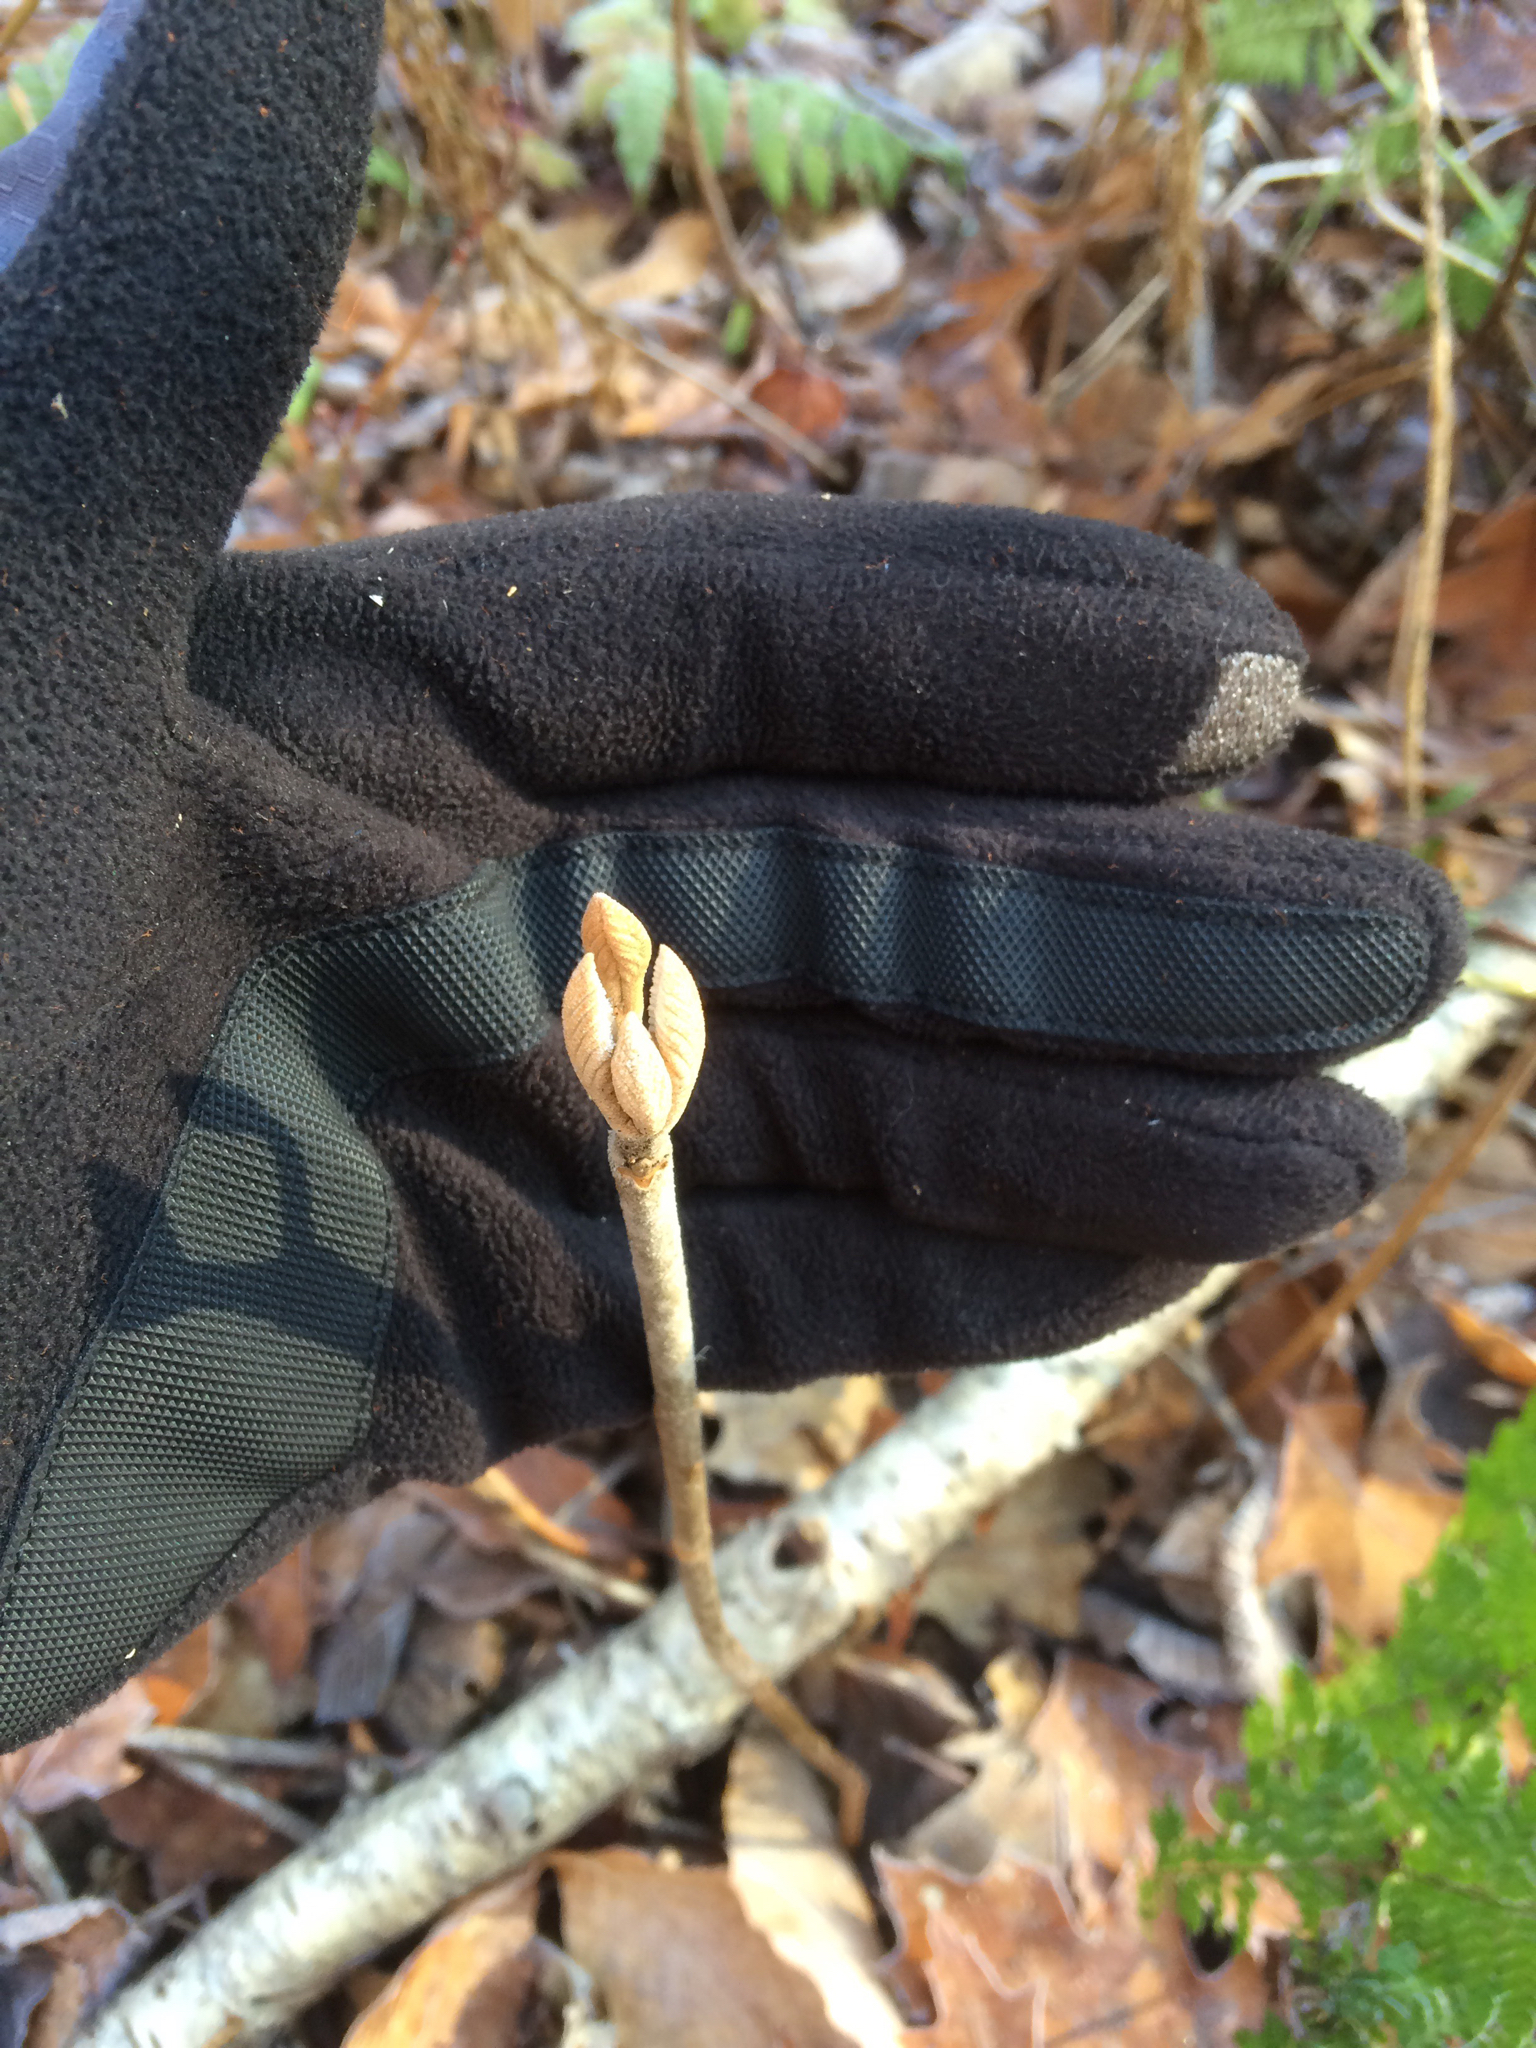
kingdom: Plantae
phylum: Tracheophyta
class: Magnoliopsida
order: Dipsacales
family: Viburnaceae
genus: Viburnum
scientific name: Viburnum lantanoides
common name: Hobblebush
